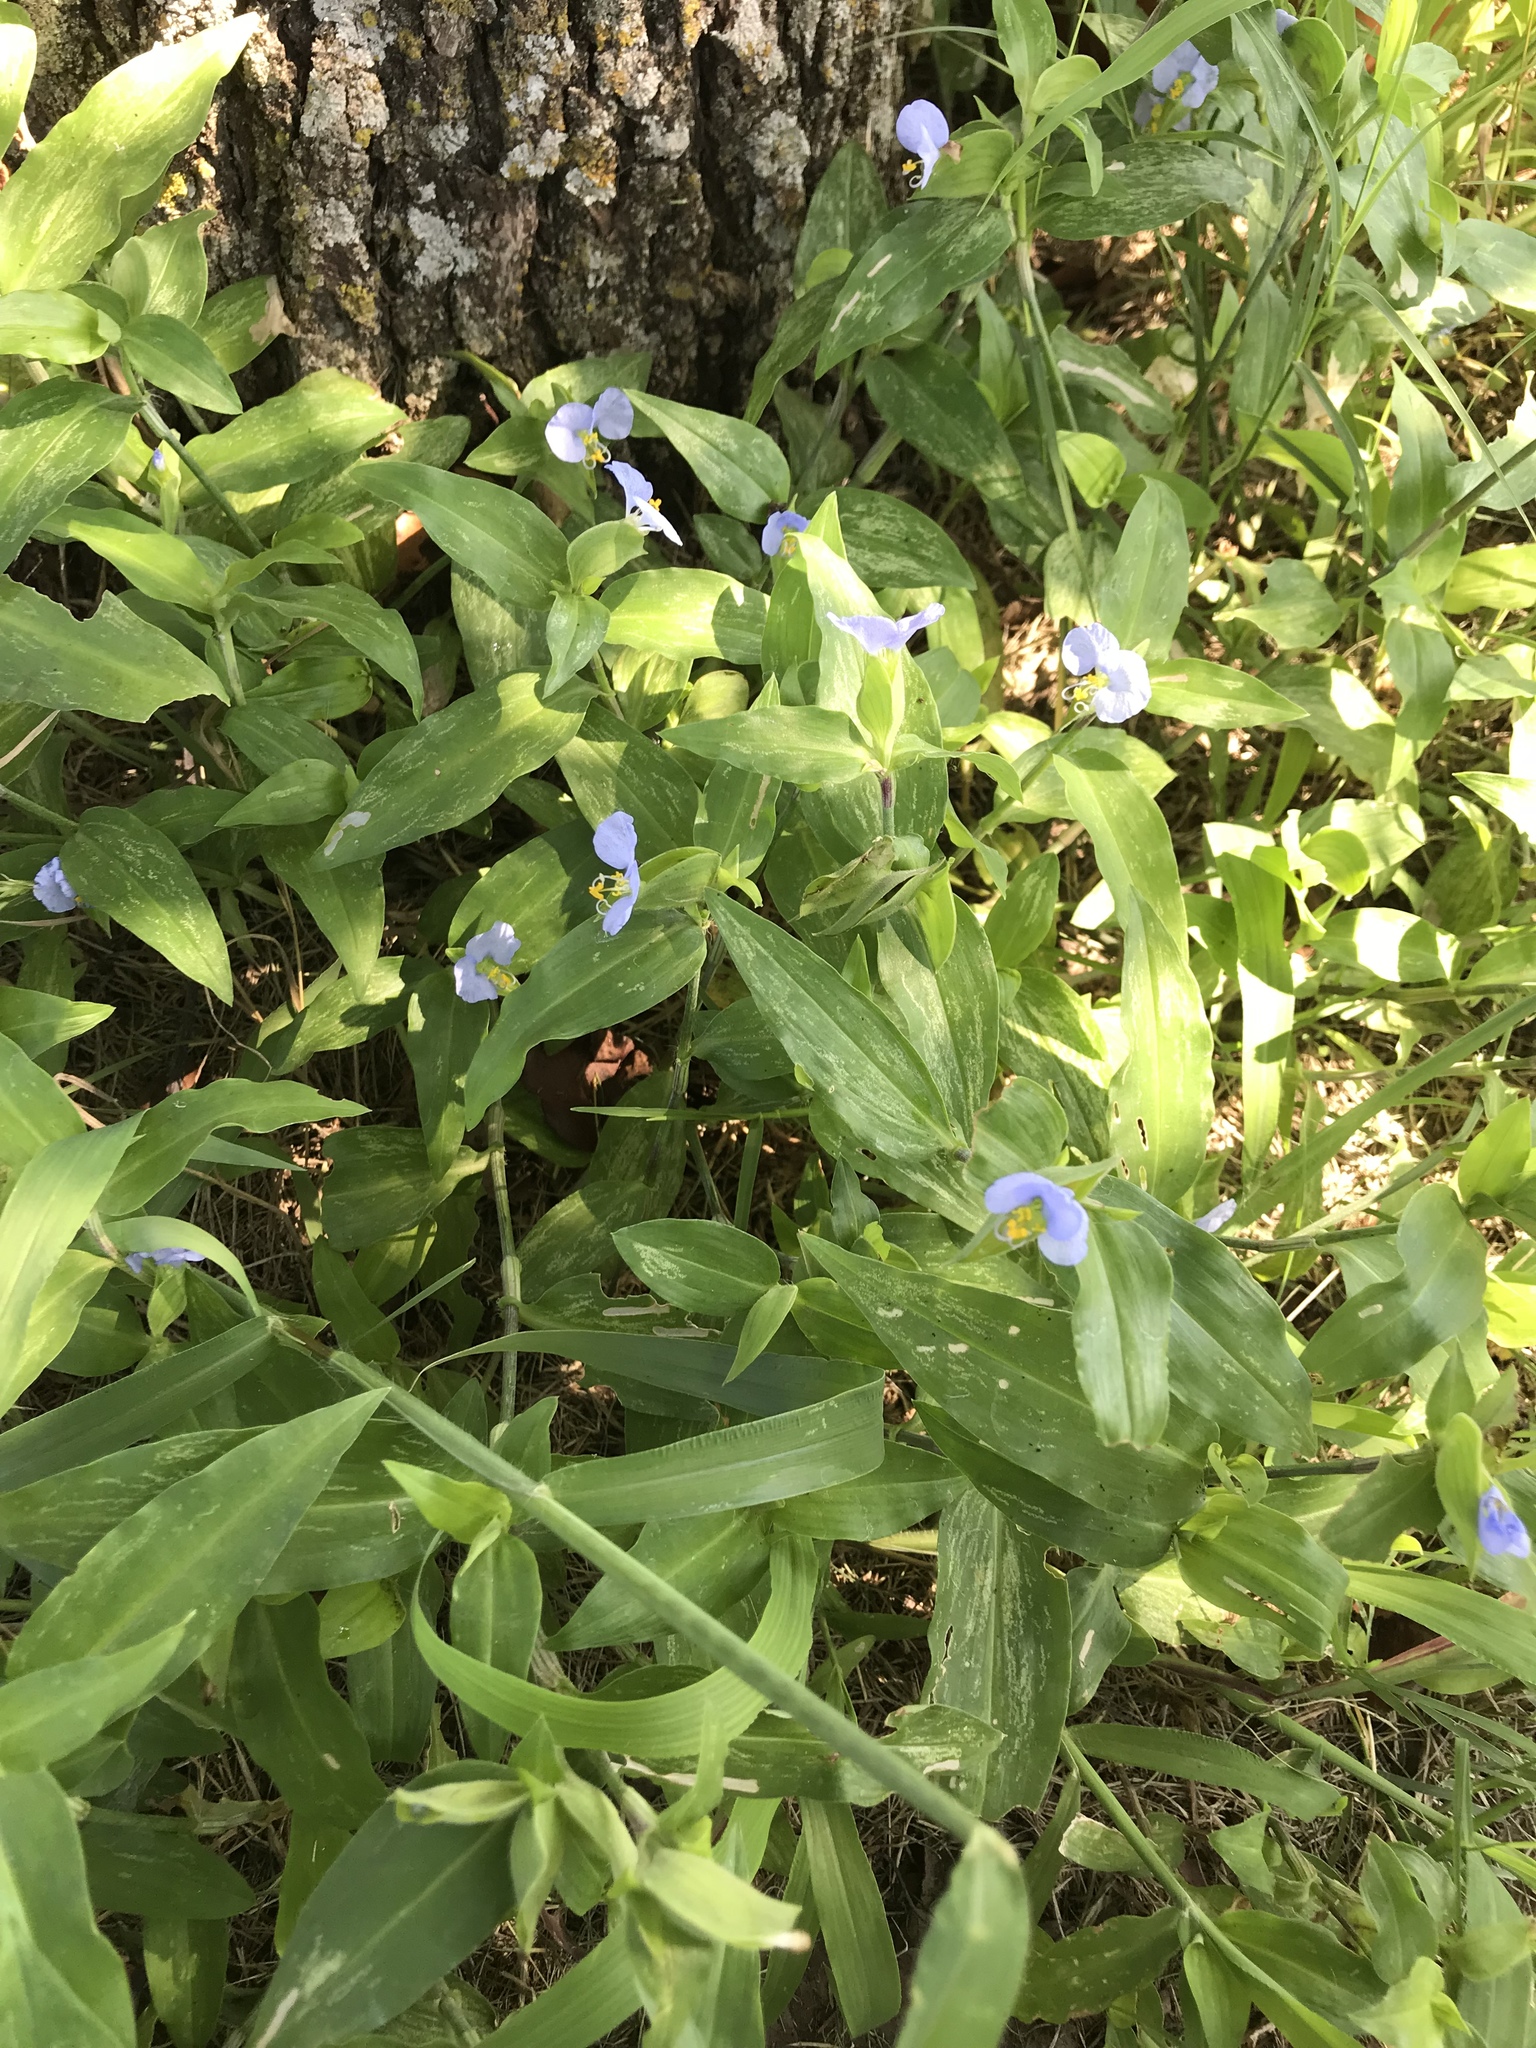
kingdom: Plantae
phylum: Tracheophyta
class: Liliopsida
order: Commelinales
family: Commelinaceae
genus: Commelina
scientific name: Commelina erecta
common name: Blousel blommetjie
